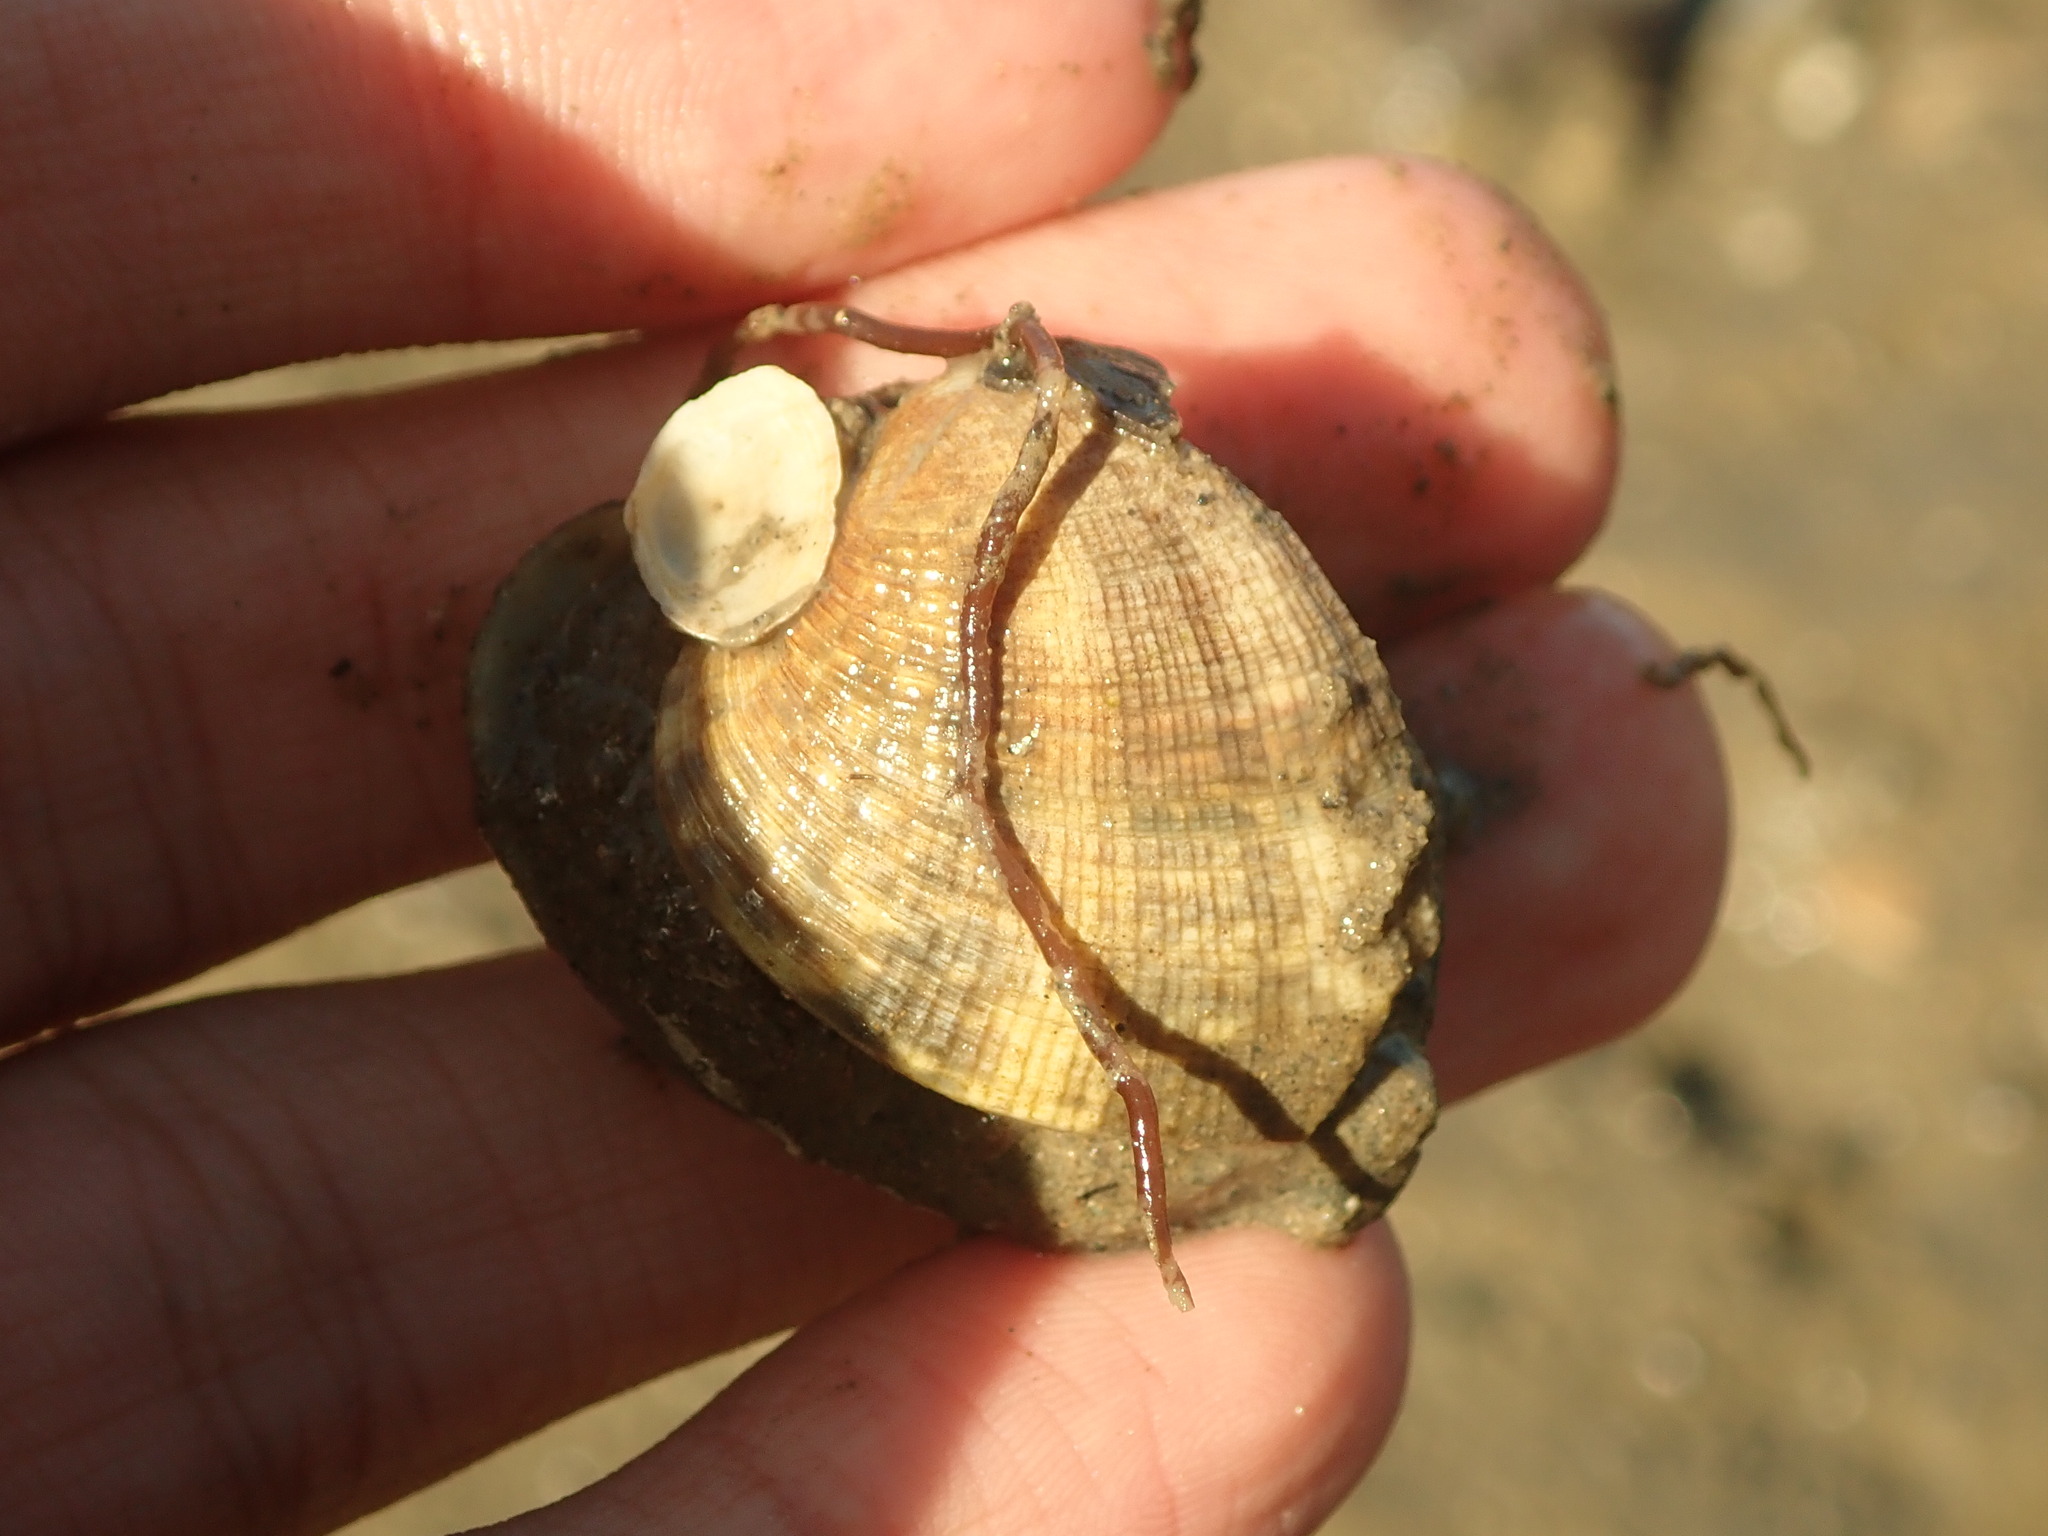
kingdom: Animalia
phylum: Mollusca
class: Bivalvia
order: Venerida
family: Veneridae
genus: Ruditapes
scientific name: Ruditapes philippinarum
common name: Manila clam
